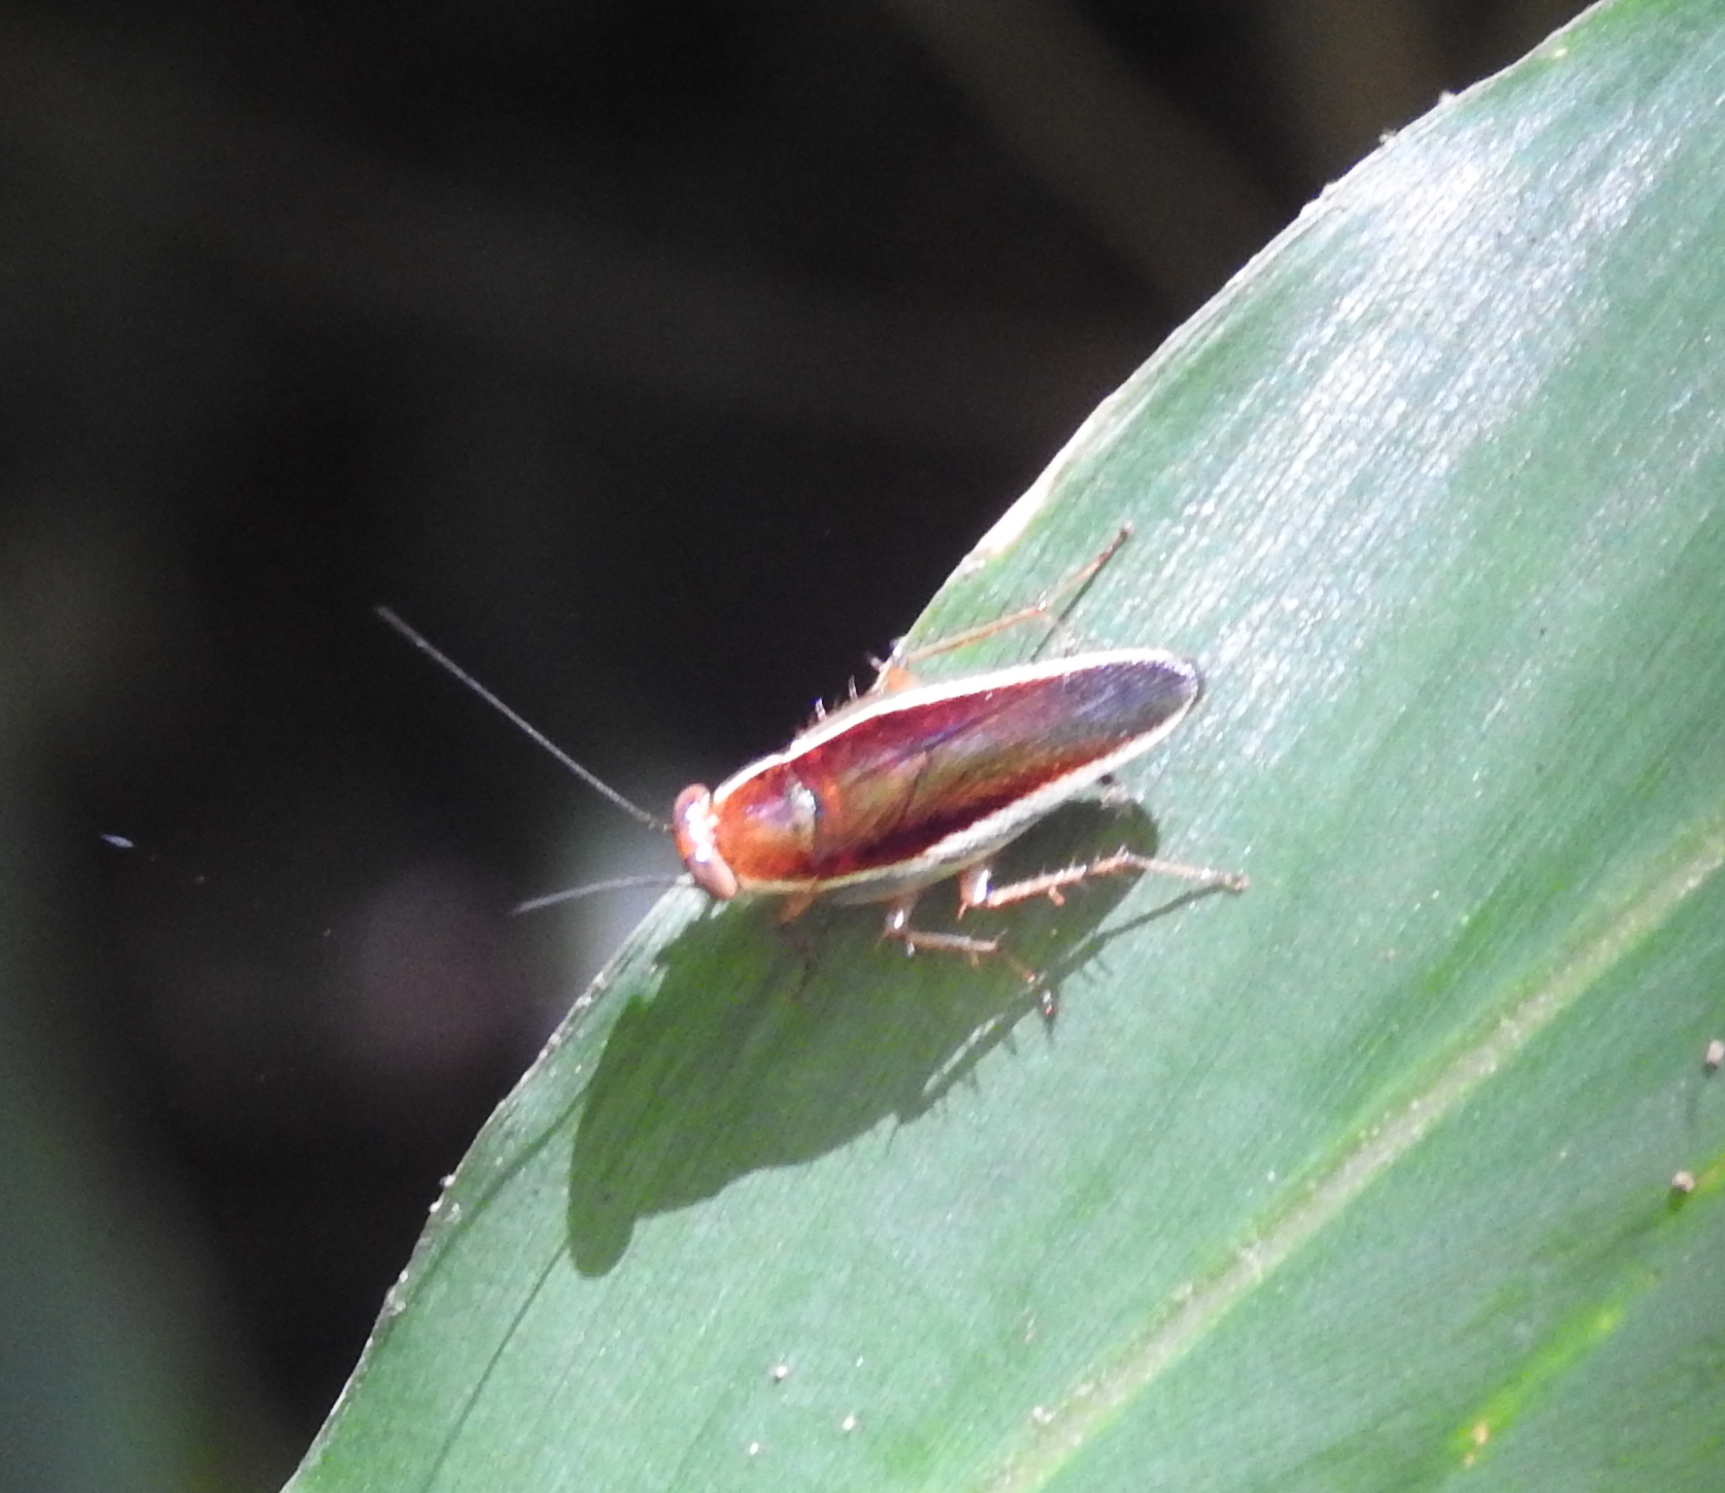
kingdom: Animalia
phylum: Arthropoda
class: Insecta
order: Blattodea
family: Ectobiidae
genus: Pseudophyllodromia
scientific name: Pseudophyllodromia laticeps
